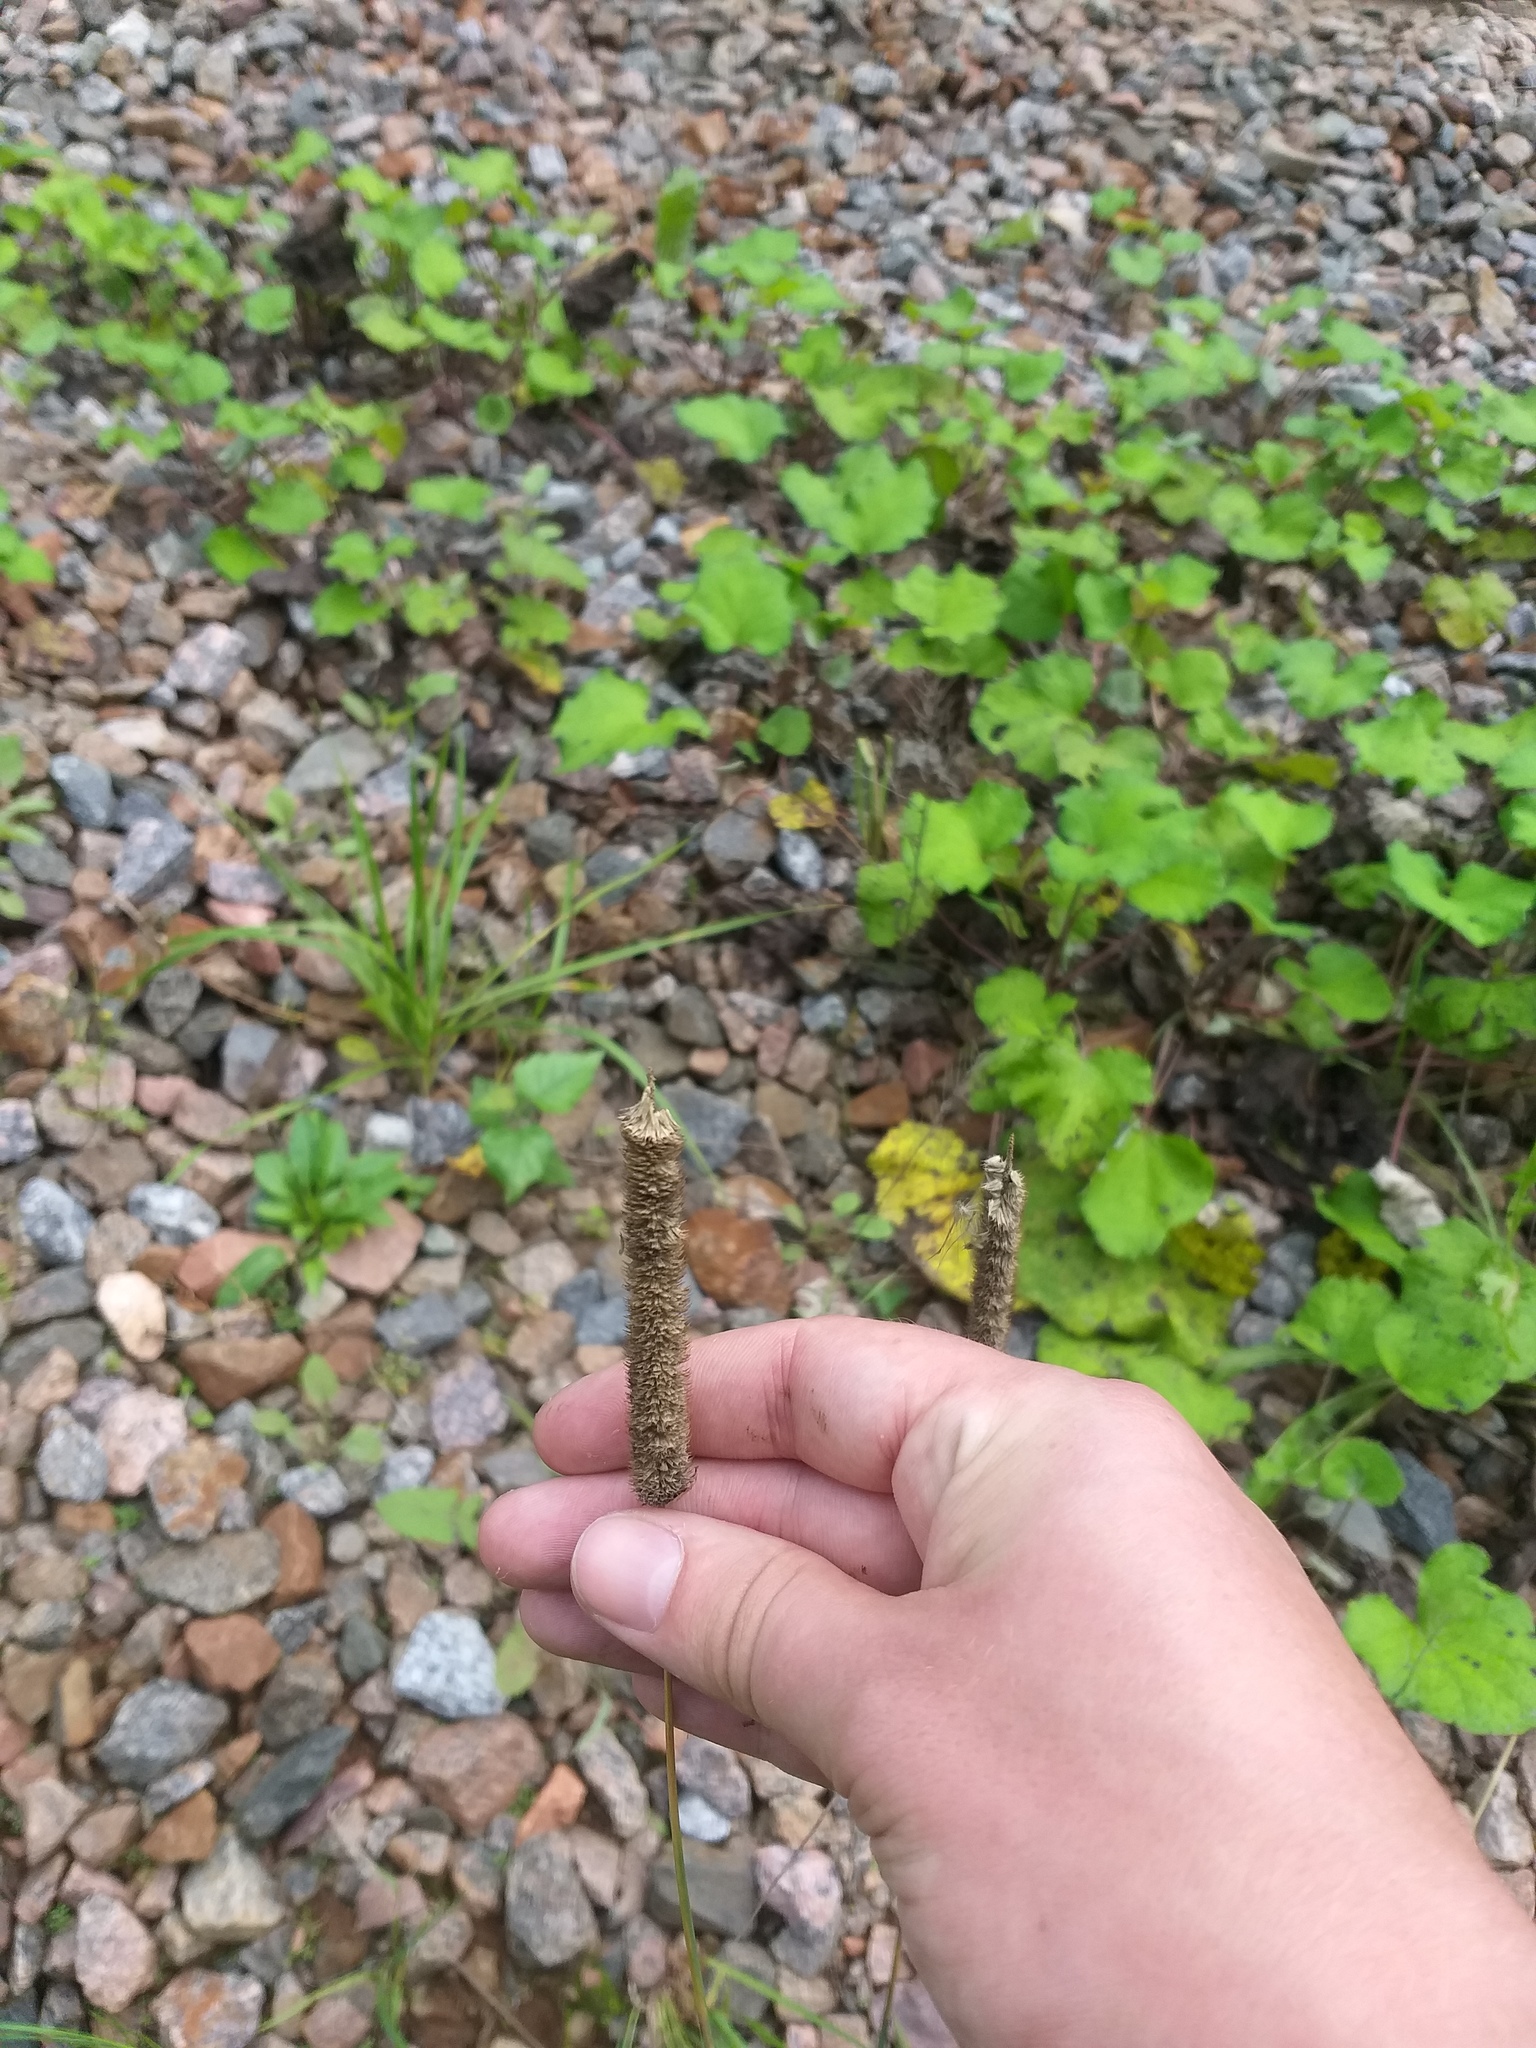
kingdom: Plantae
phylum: Tracheophyta
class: Liliopsida
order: Poales
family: Poaceae
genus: Phleum
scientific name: Phleum pratense
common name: Timothy grass
